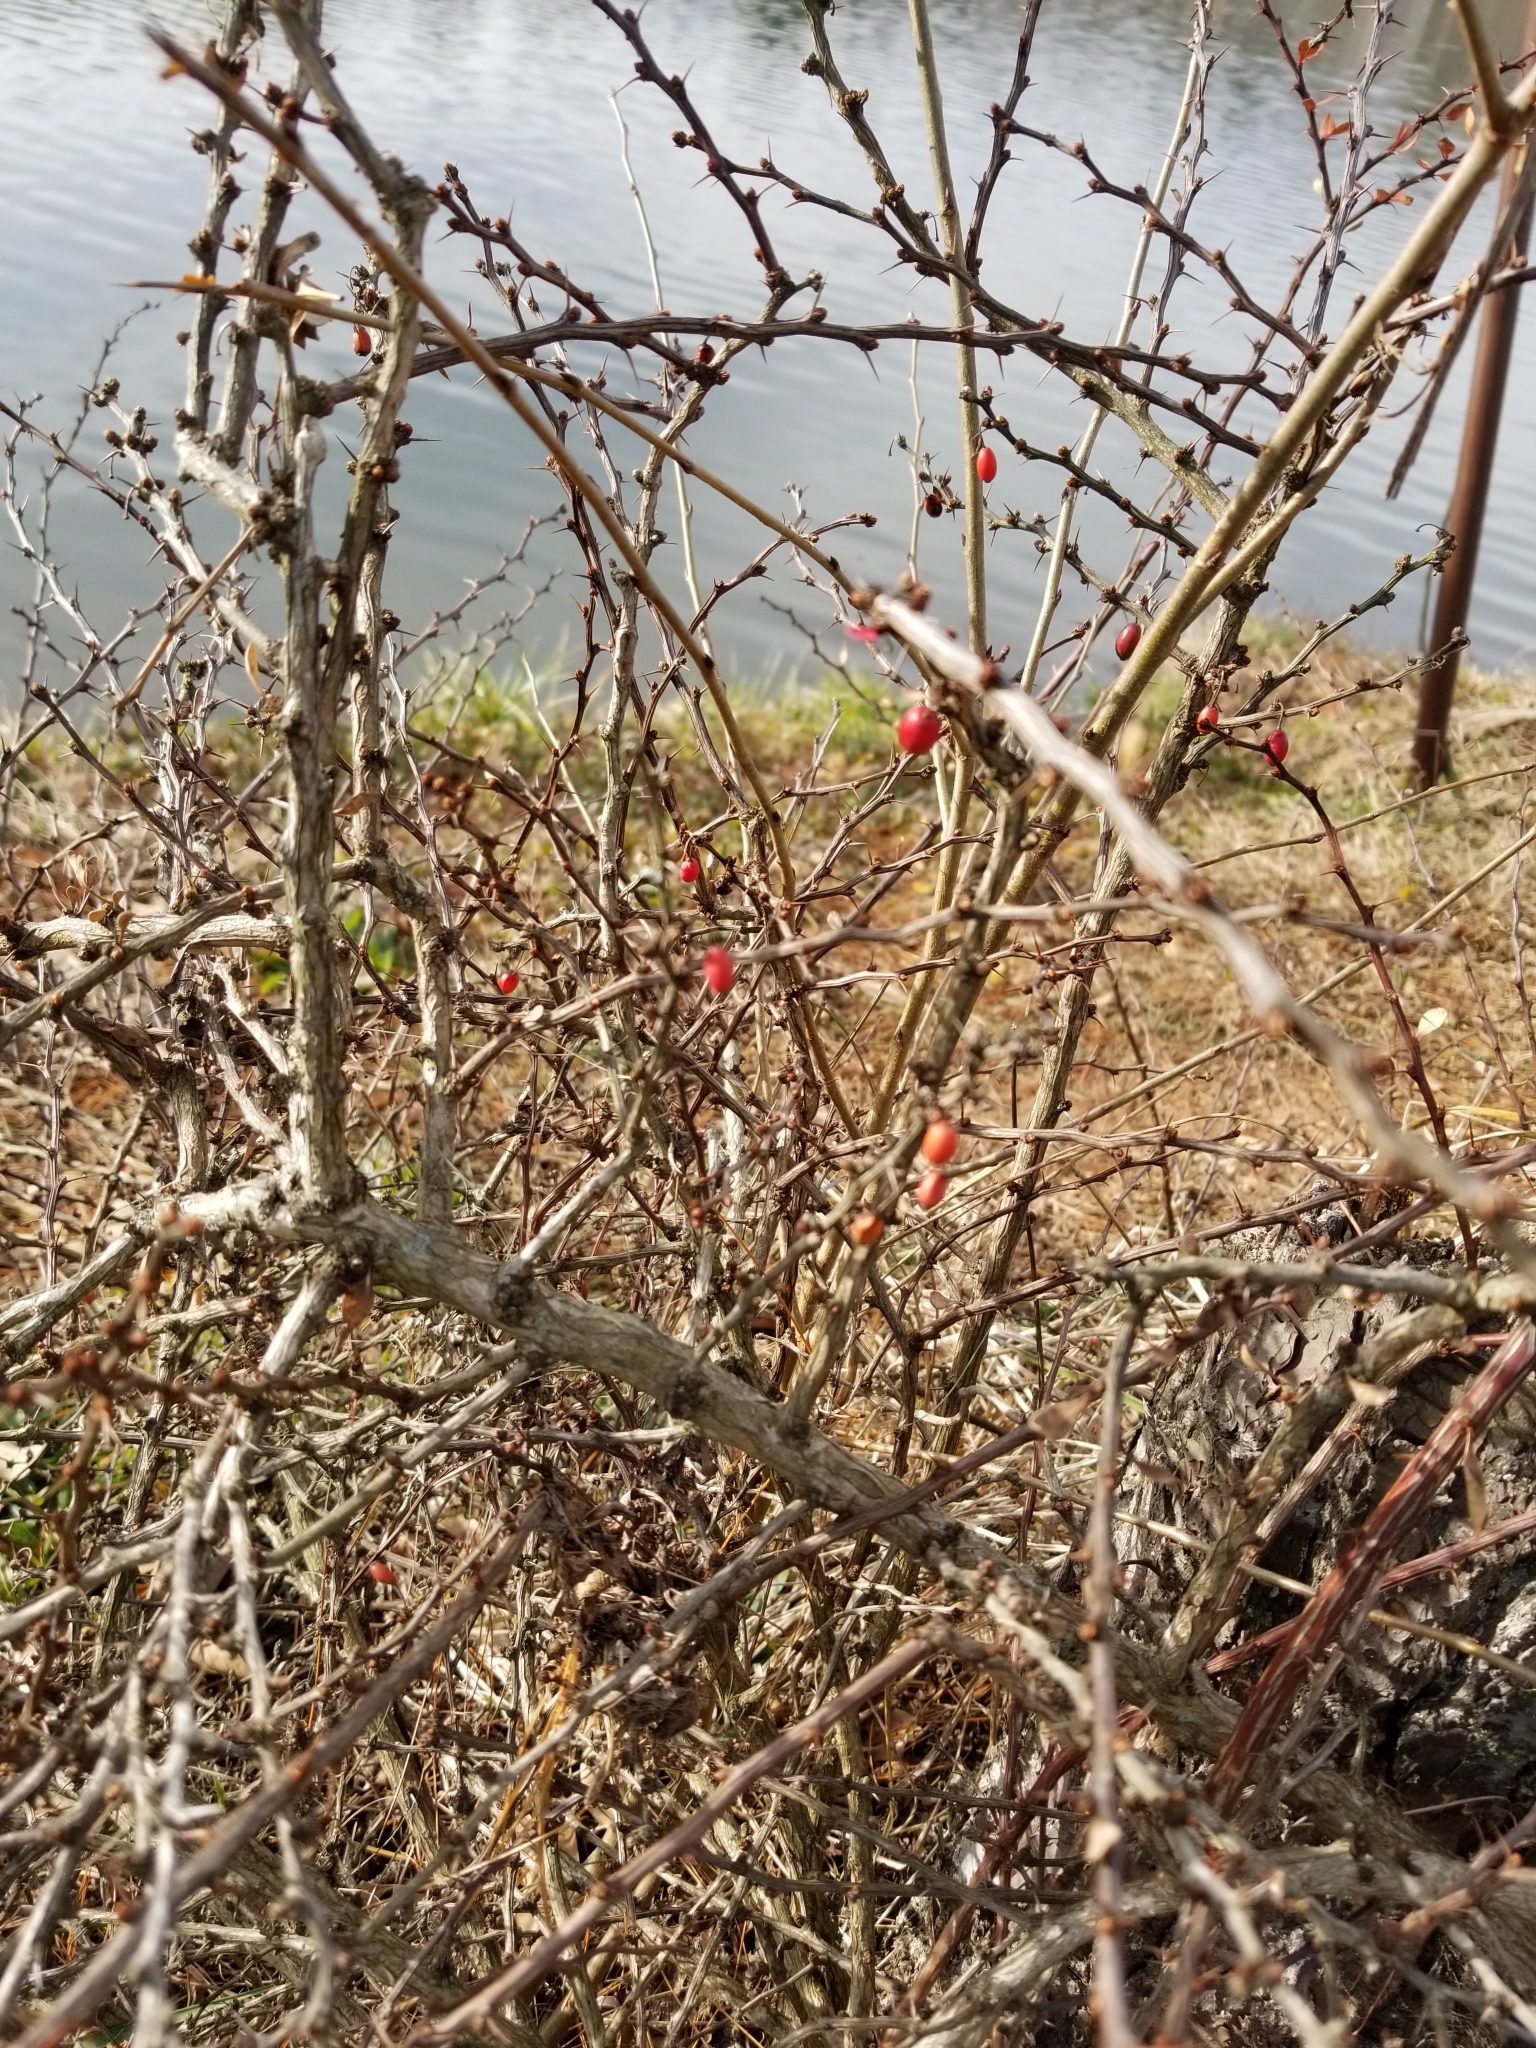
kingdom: Plantae
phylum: Tracheophyta
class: Magnoliopsida
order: Ranunculales
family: Berberidaceae
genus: Berberis
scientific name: Berberis thunbergii
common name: Japanese barberry
